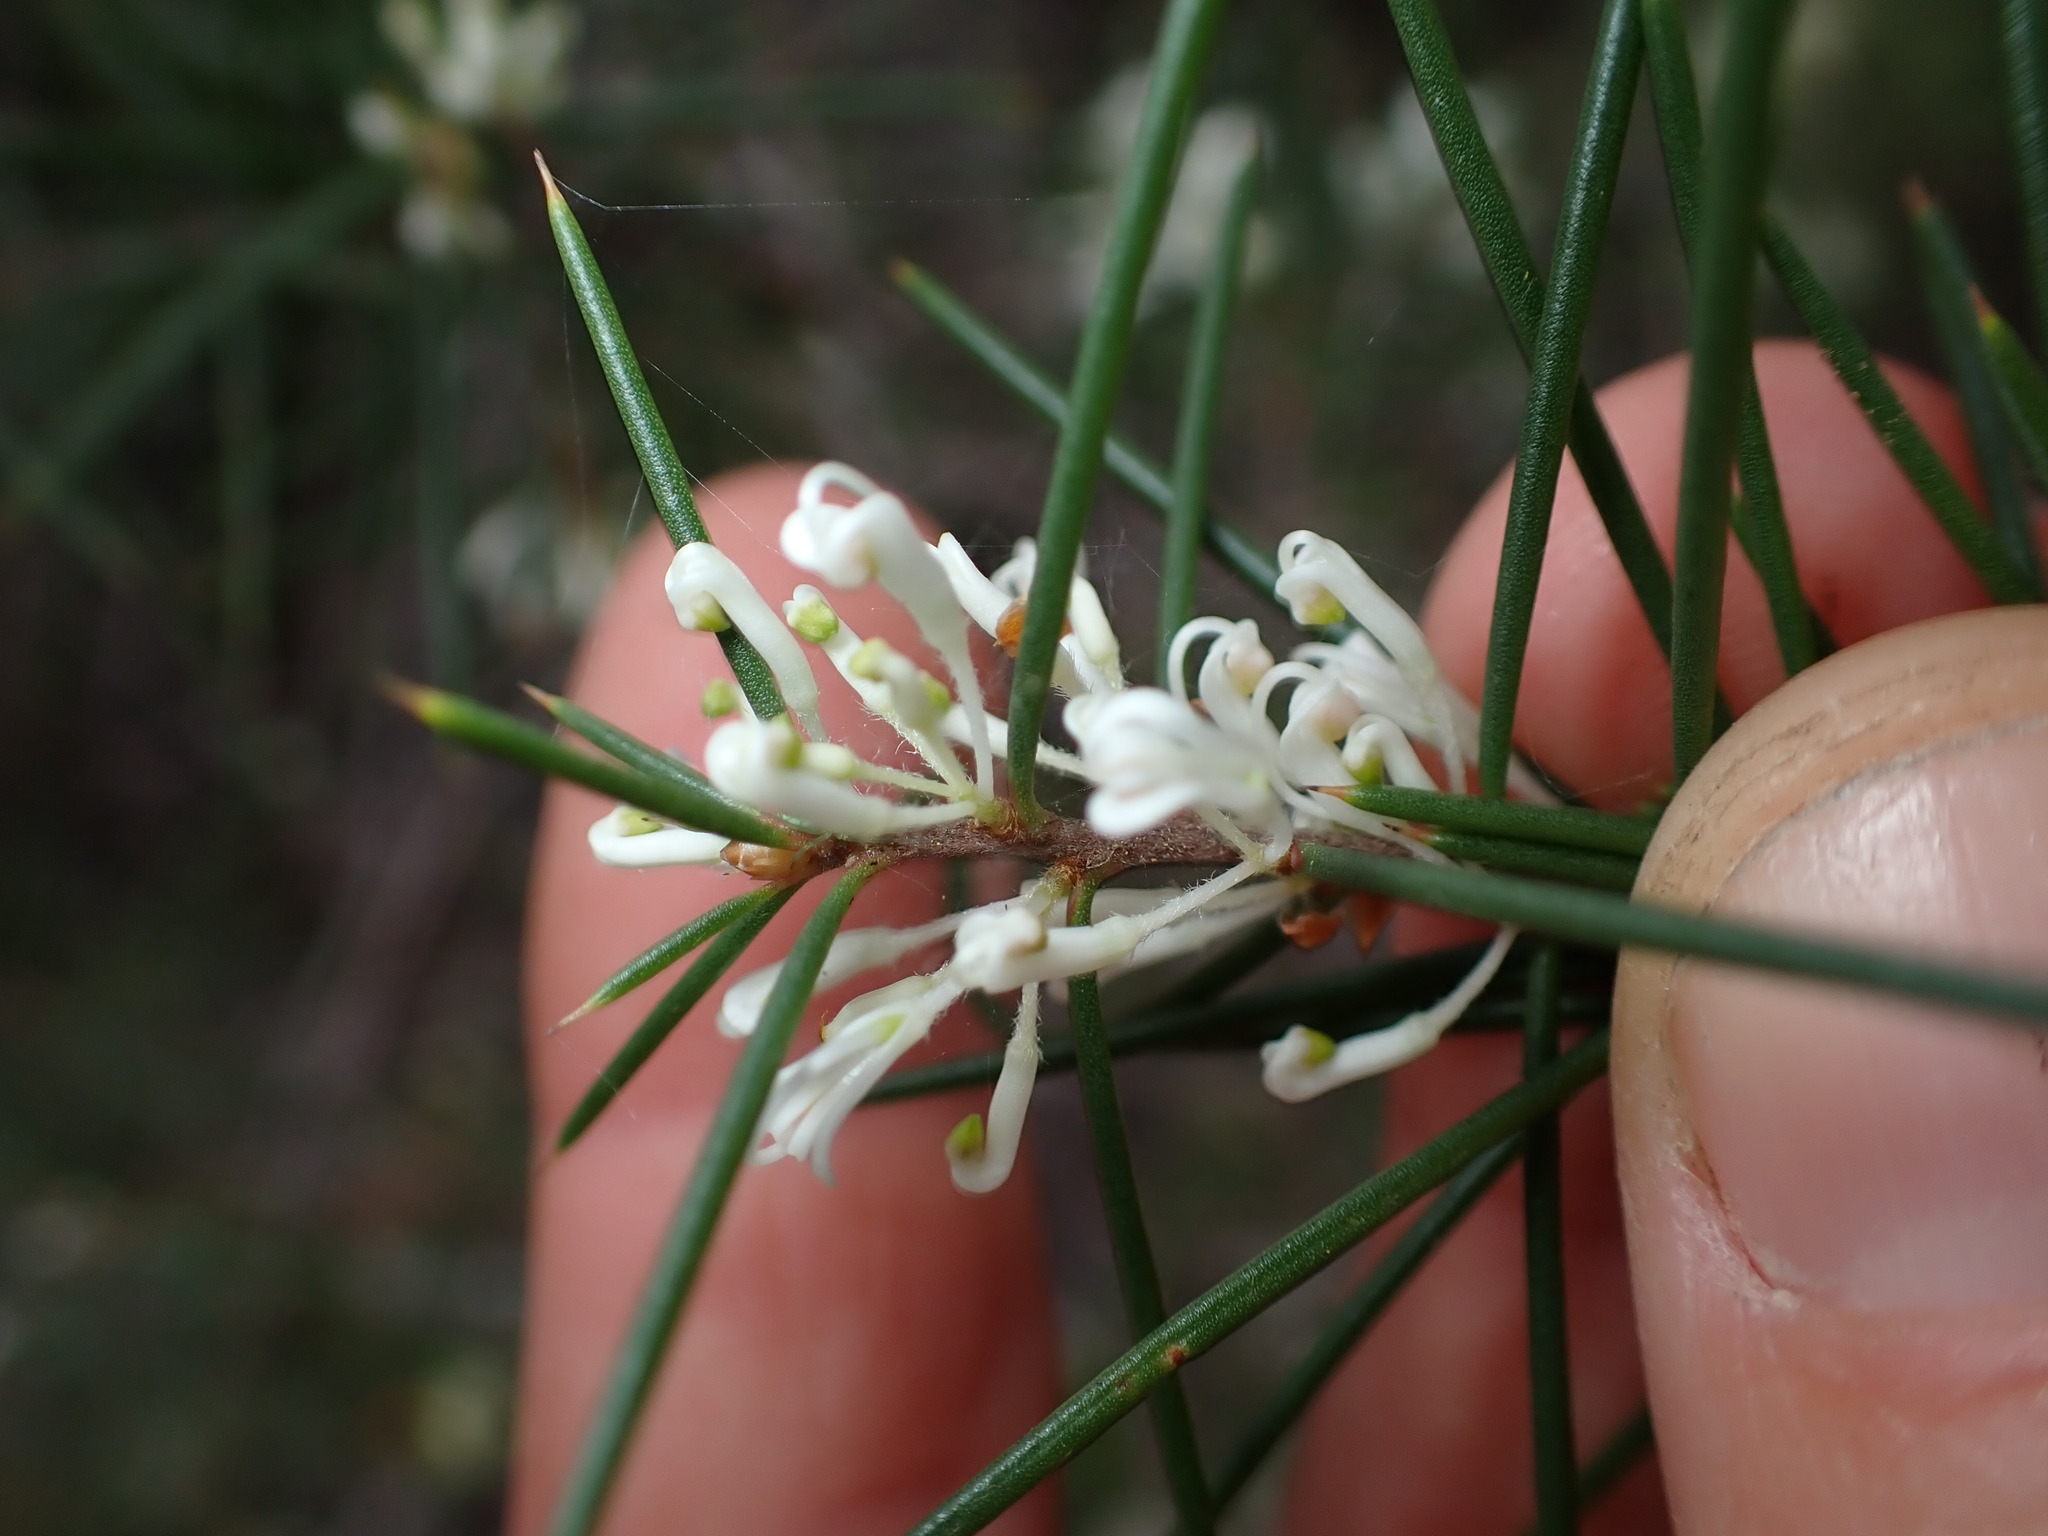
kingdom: Plantae
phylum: Tracheophyta
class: Magnoliopsida
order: Proteales
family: Proteaceae
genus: Hakea
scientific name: Hakea sericea
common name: Needle bush
